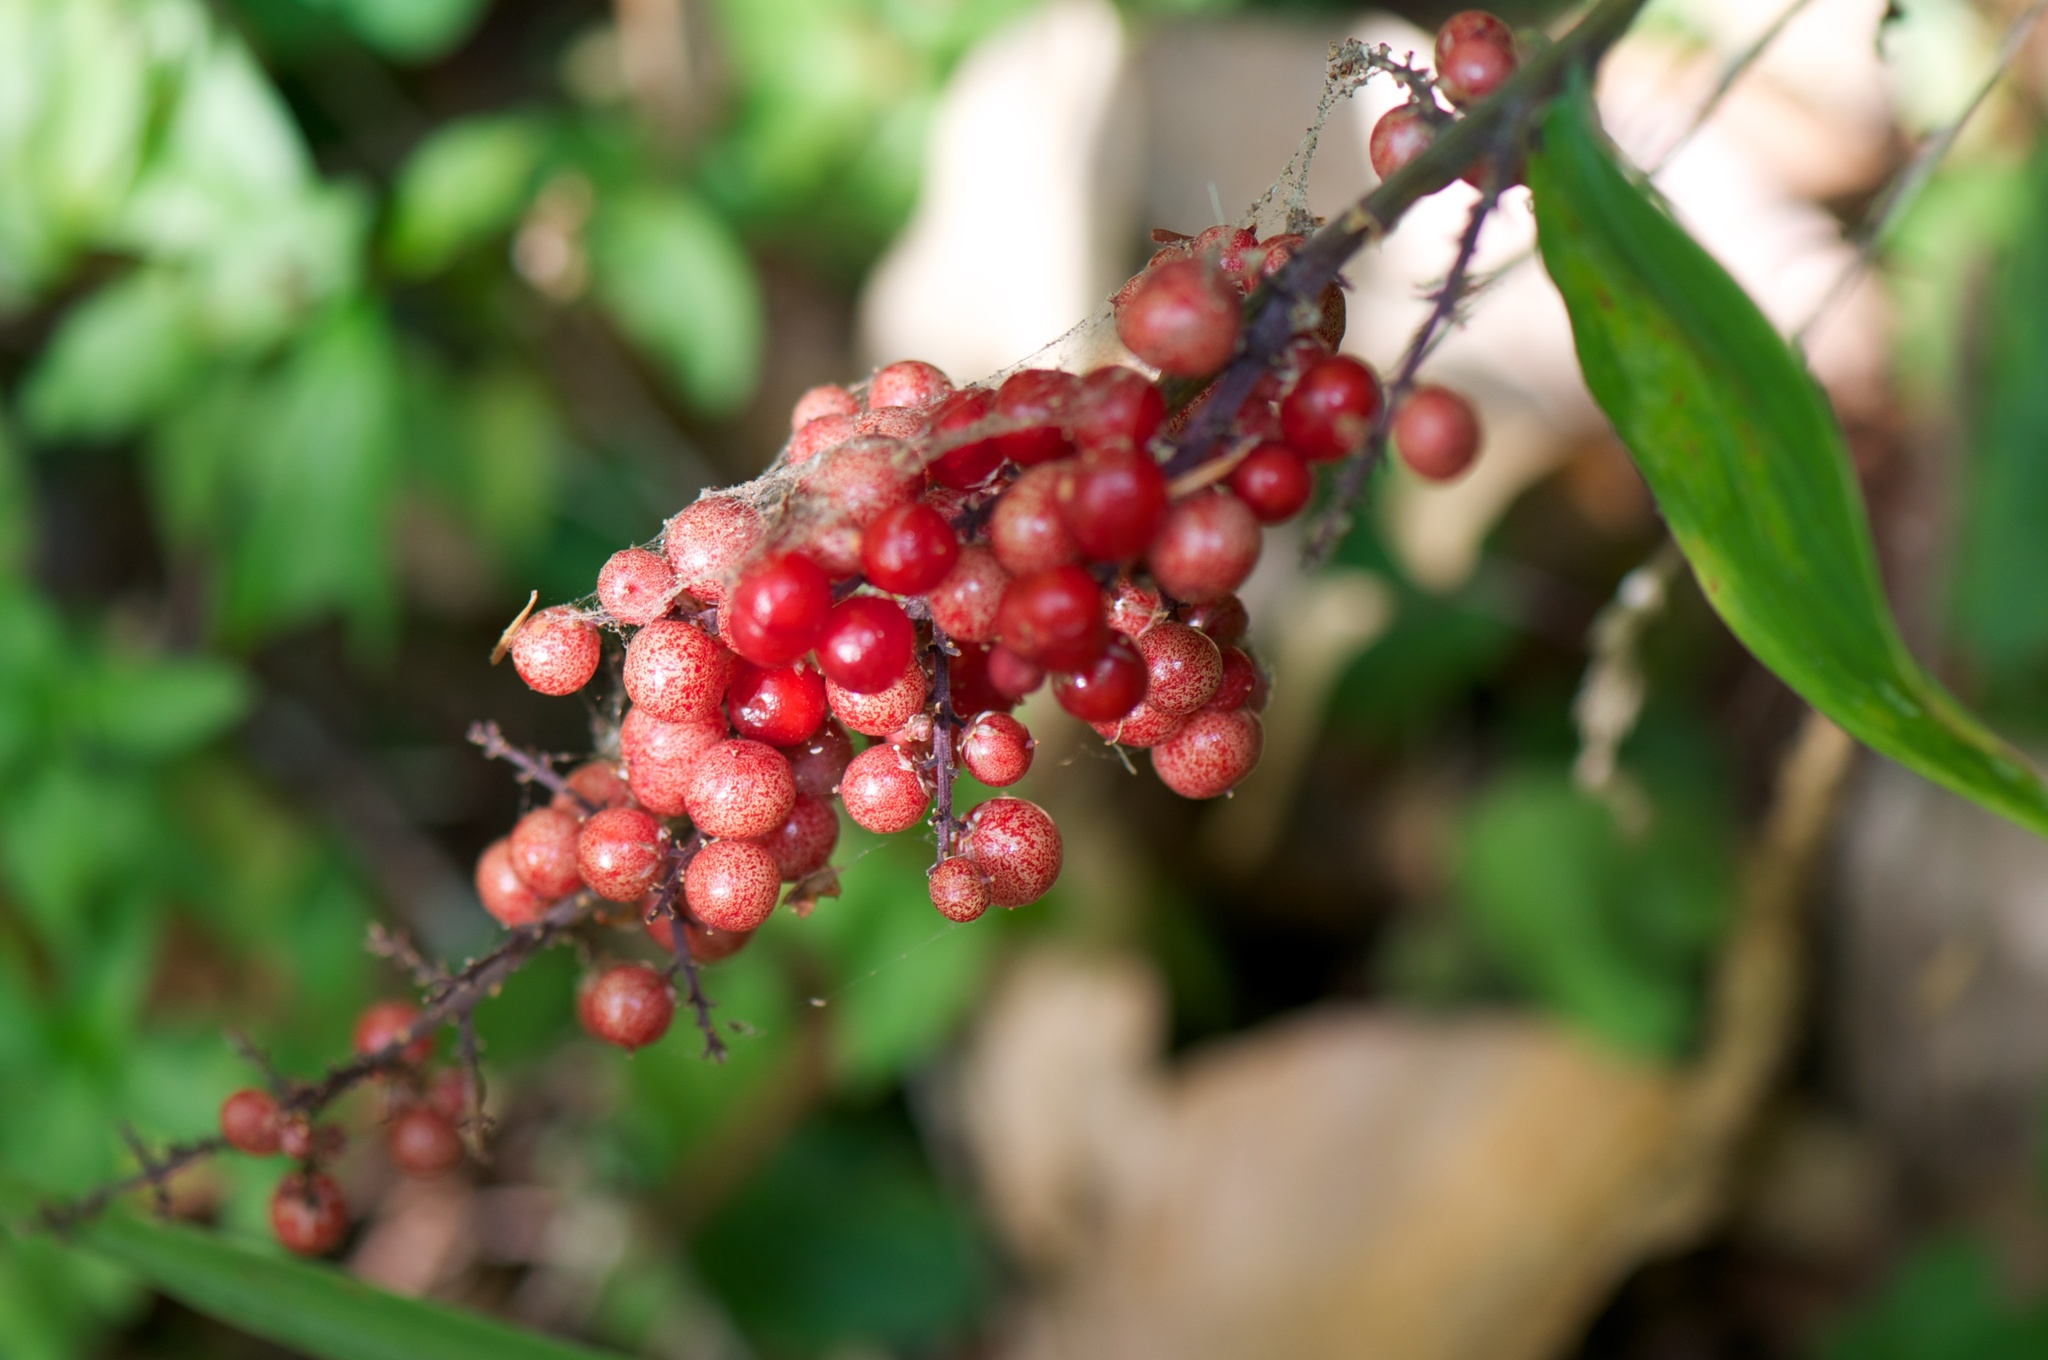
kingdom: Plantae
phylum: Tracheophyta
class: Liliopsida
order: Asparagales
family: Asparagaceae
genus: Maianthemum
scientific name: Maianthemum racemosum
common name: False spikenard
